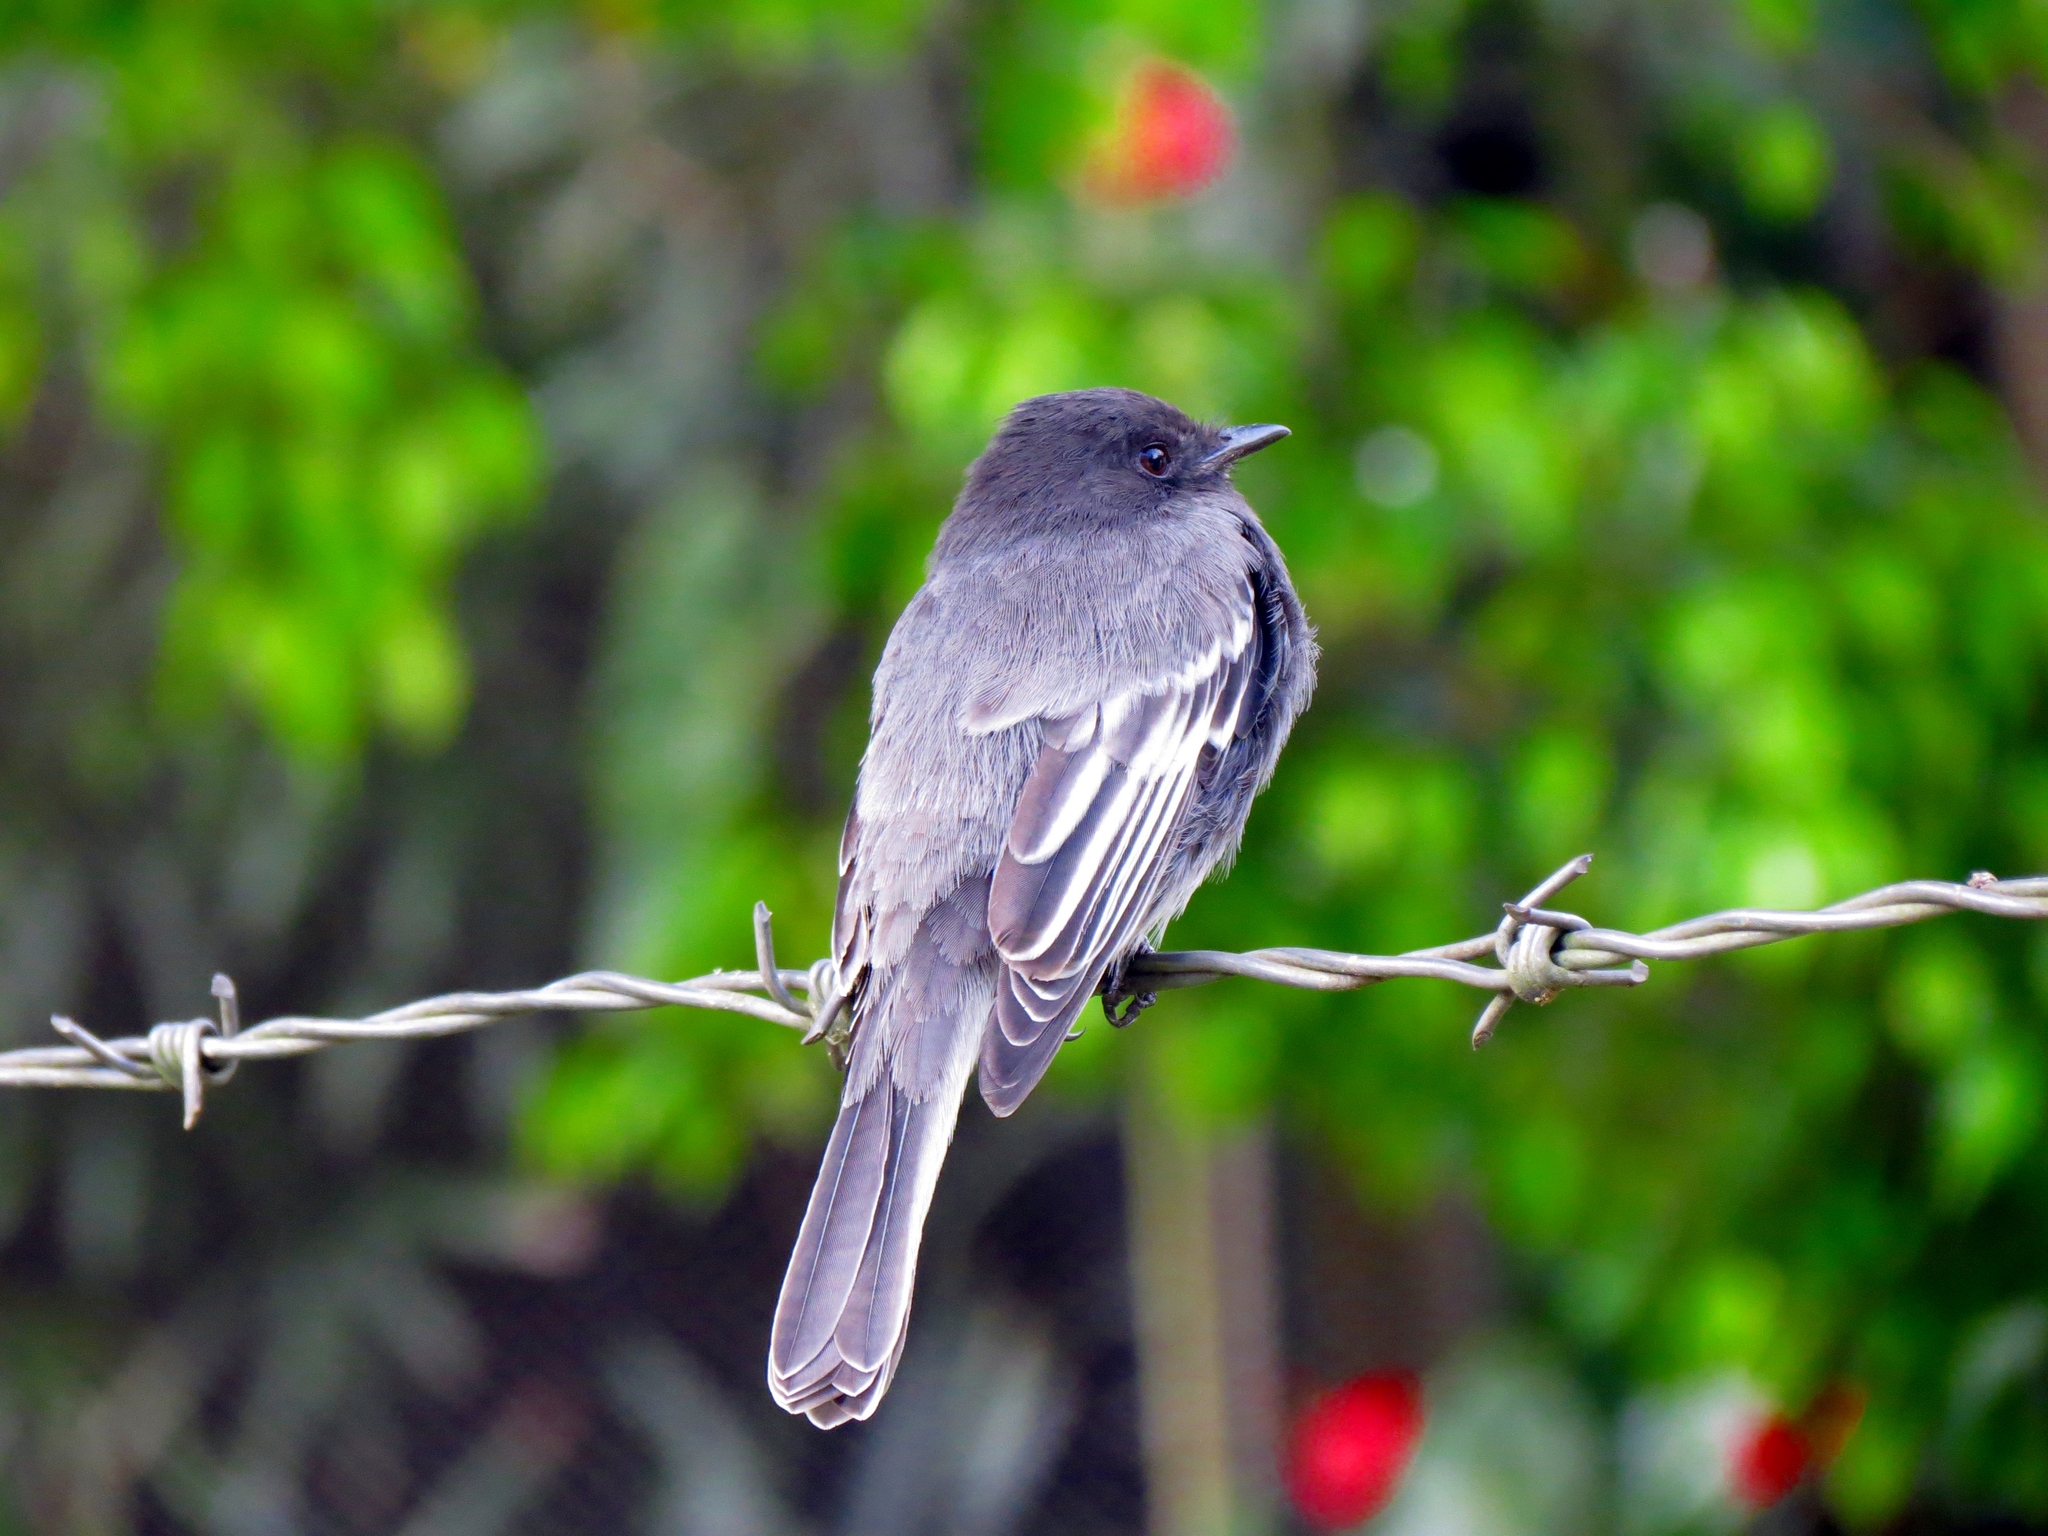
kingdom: Animalia
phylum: Chordata
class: Aves
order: Passeriformes
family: Tyrannidae
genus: Sayornis
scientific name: Sayornis nigricans
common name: Black phoebe
